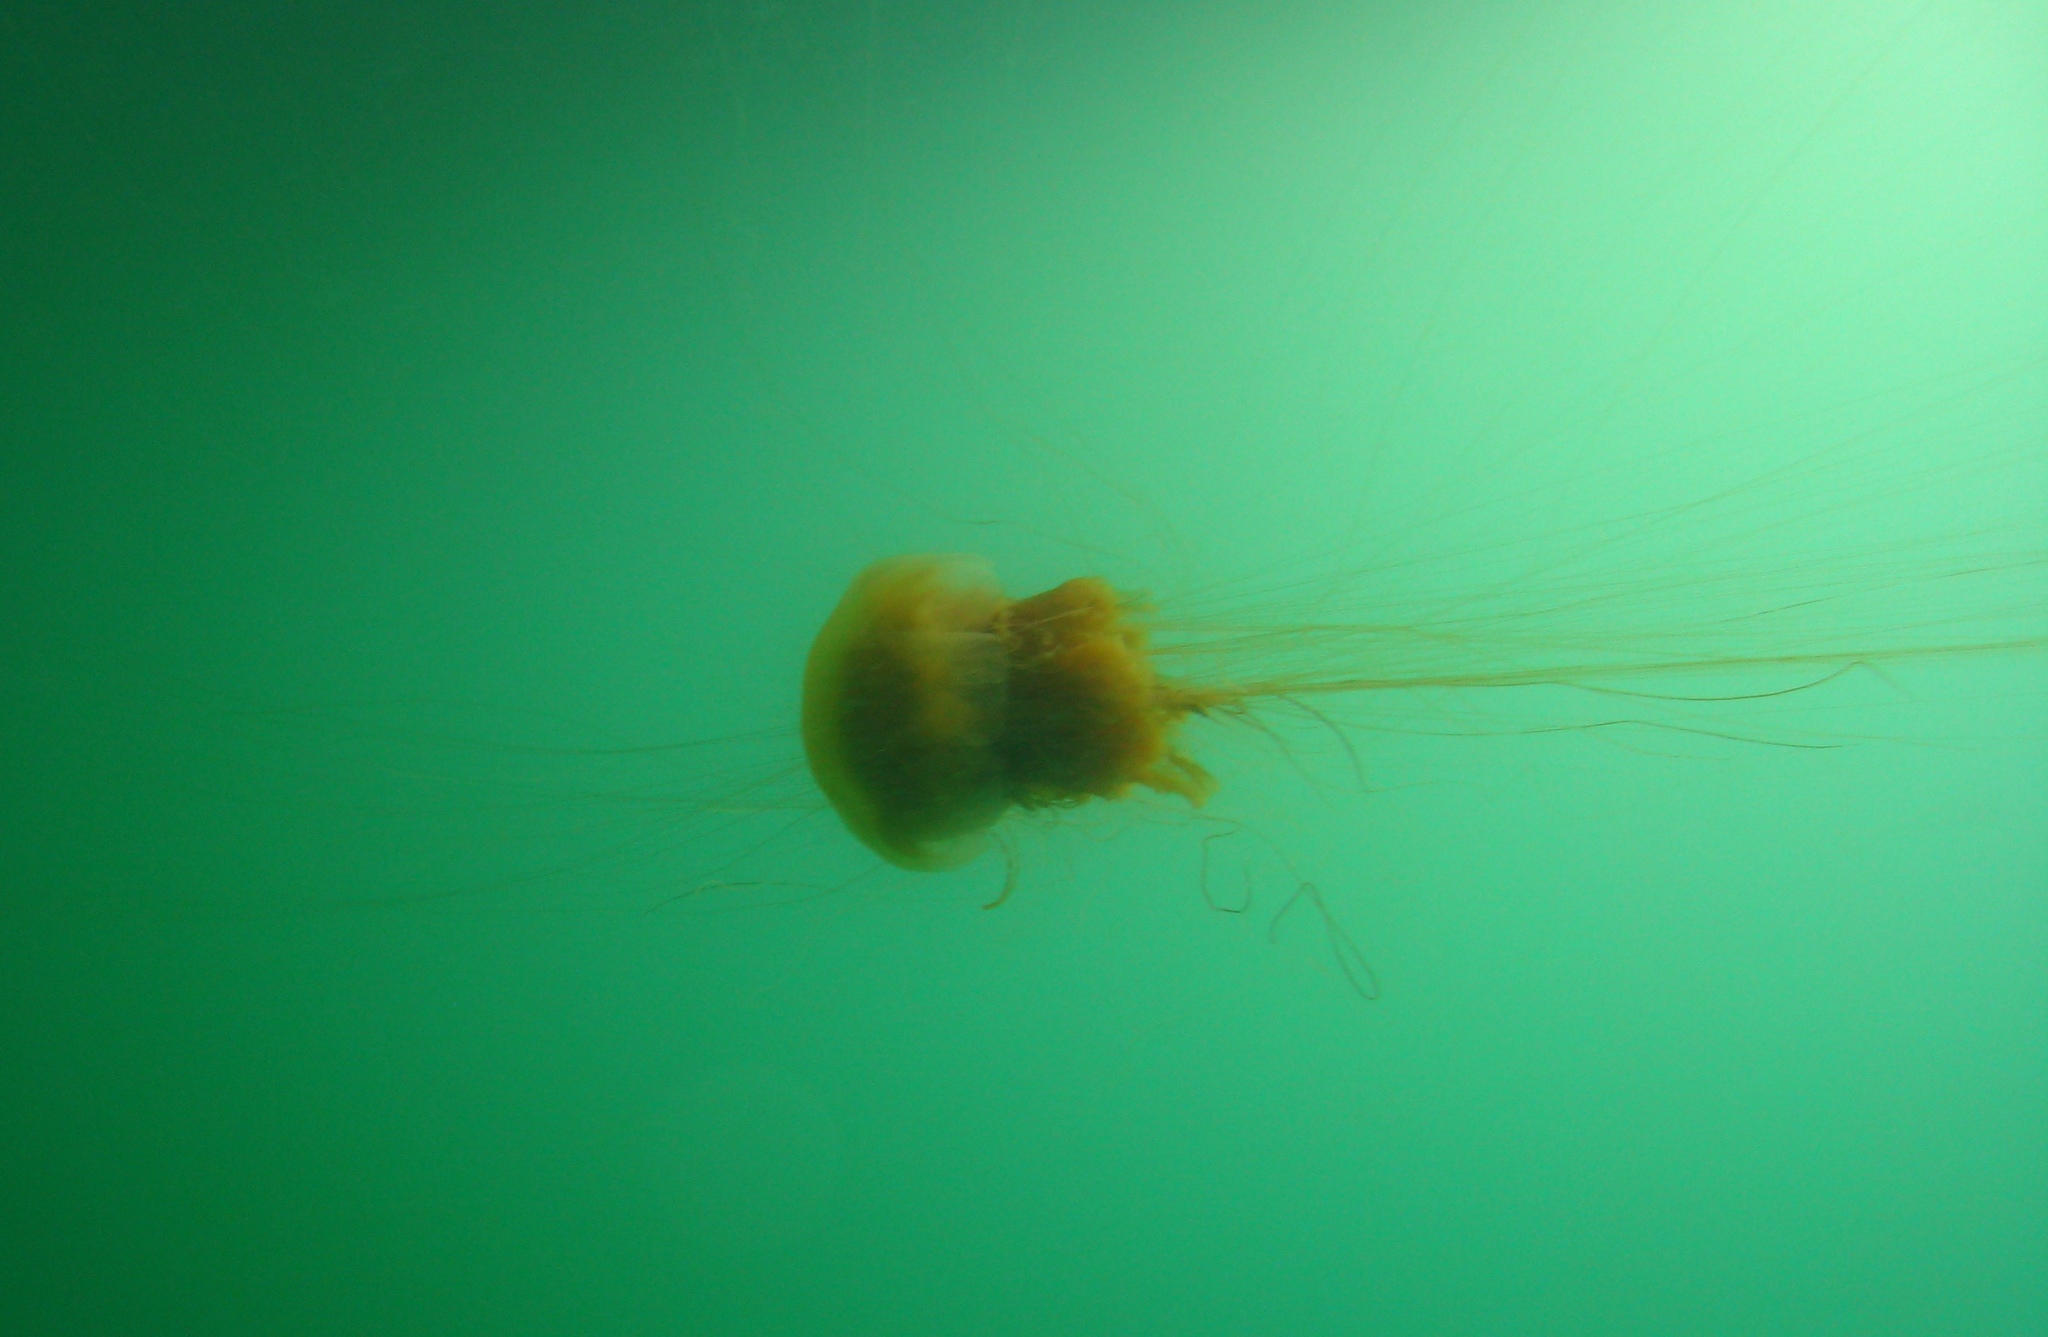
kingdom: Animalia
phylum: Cnidaria
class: Scyphozoa
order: Semaeostomeae
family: Cyaneidae
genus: Cyanea
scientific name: Cyanea ferruginea
